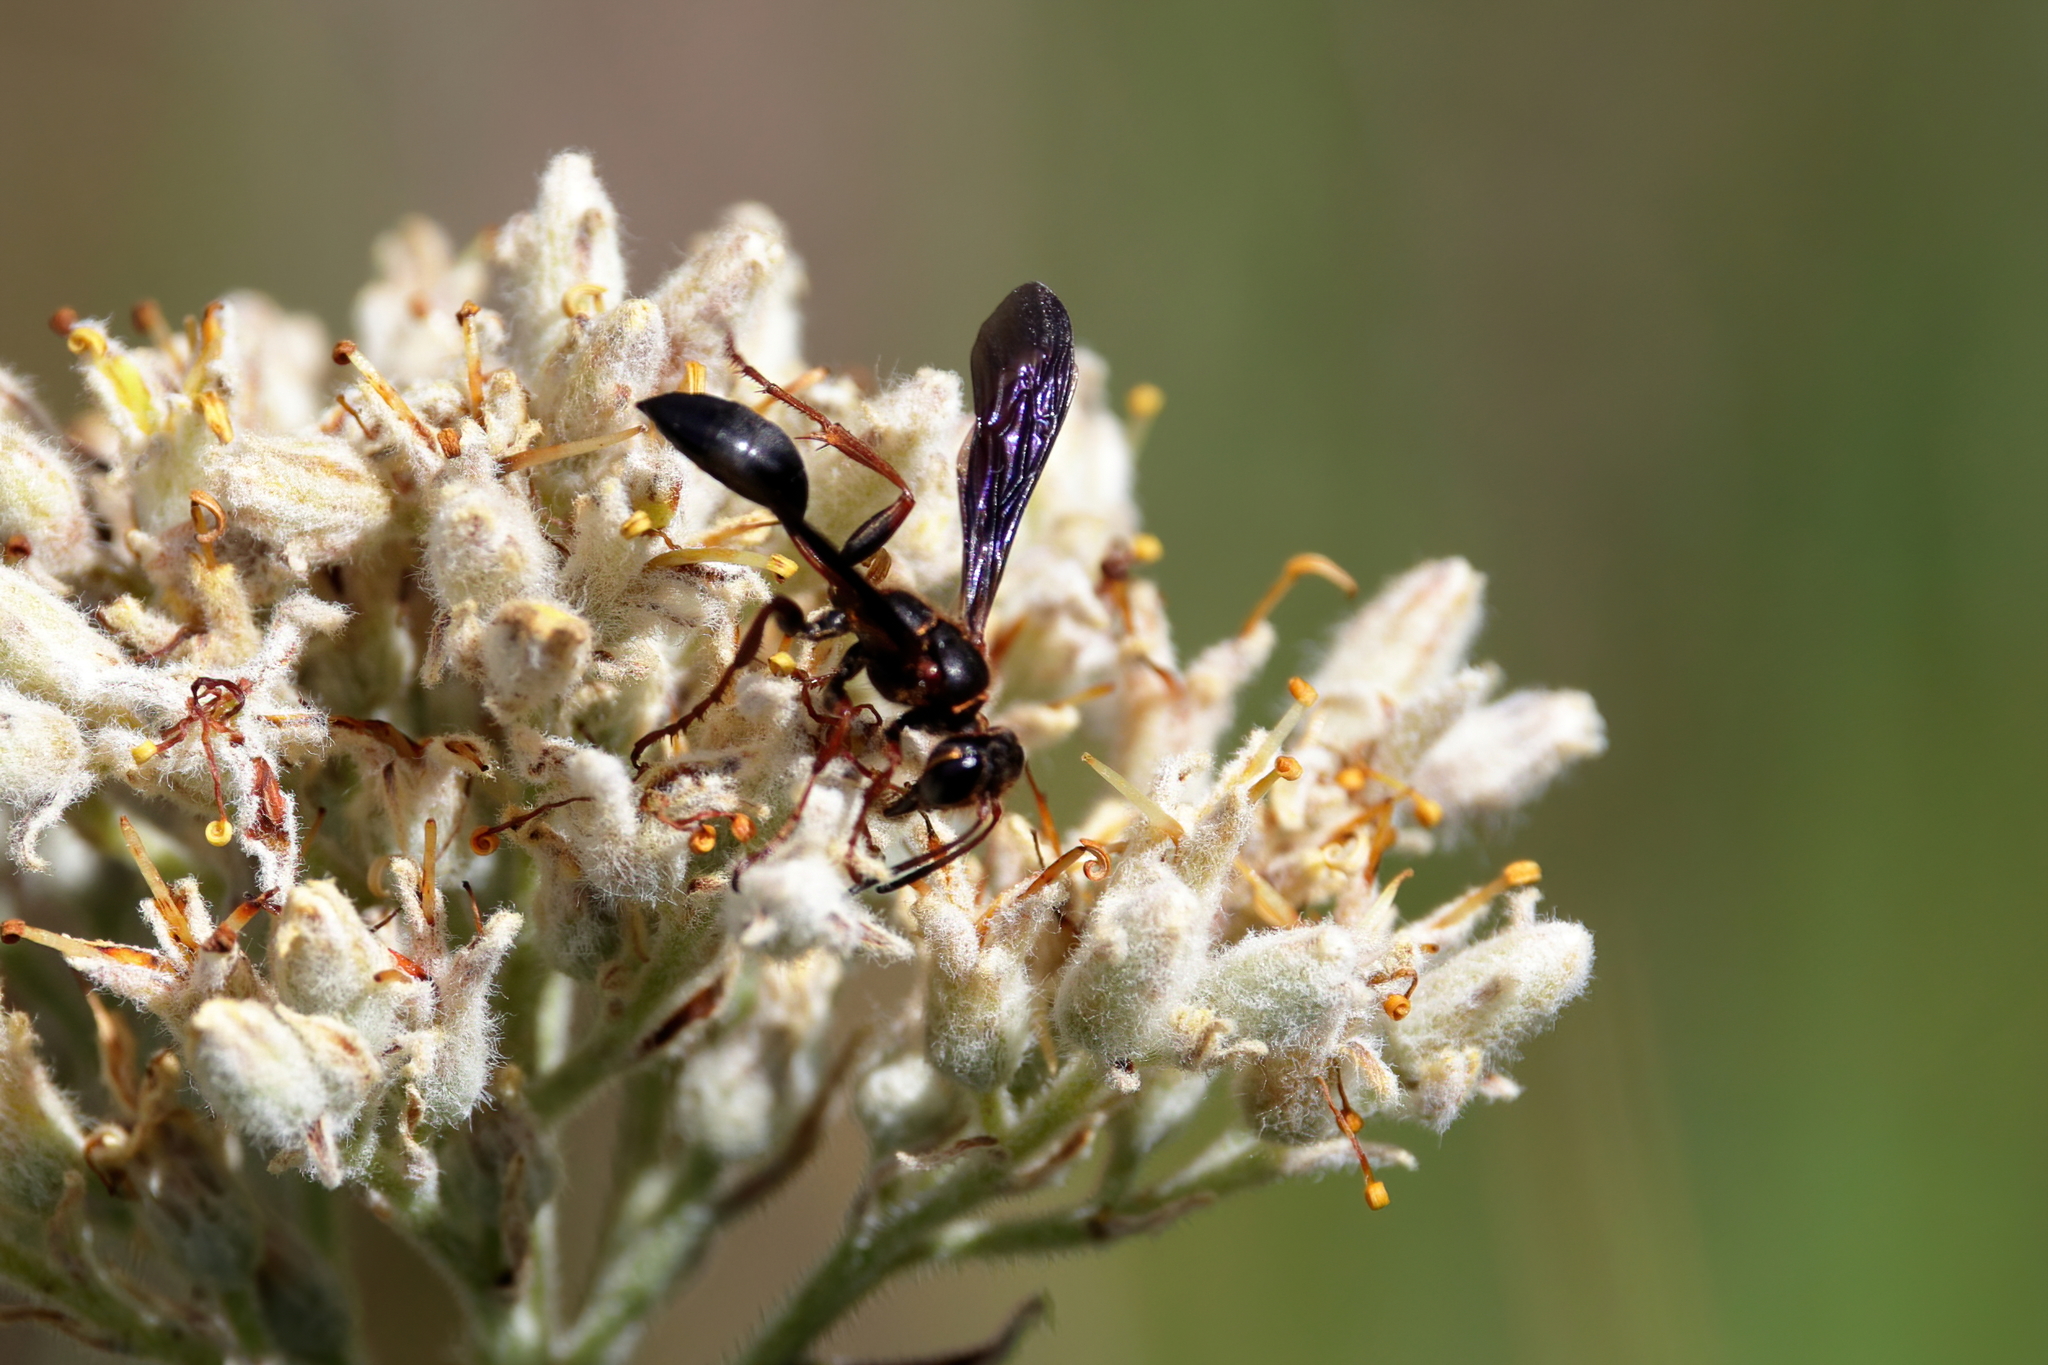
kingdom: Animalia
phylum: Arthropoda
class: Insecta
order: Hymenoptera
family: Sphecidae
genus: Isodontia
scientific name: Isodontia exornata
